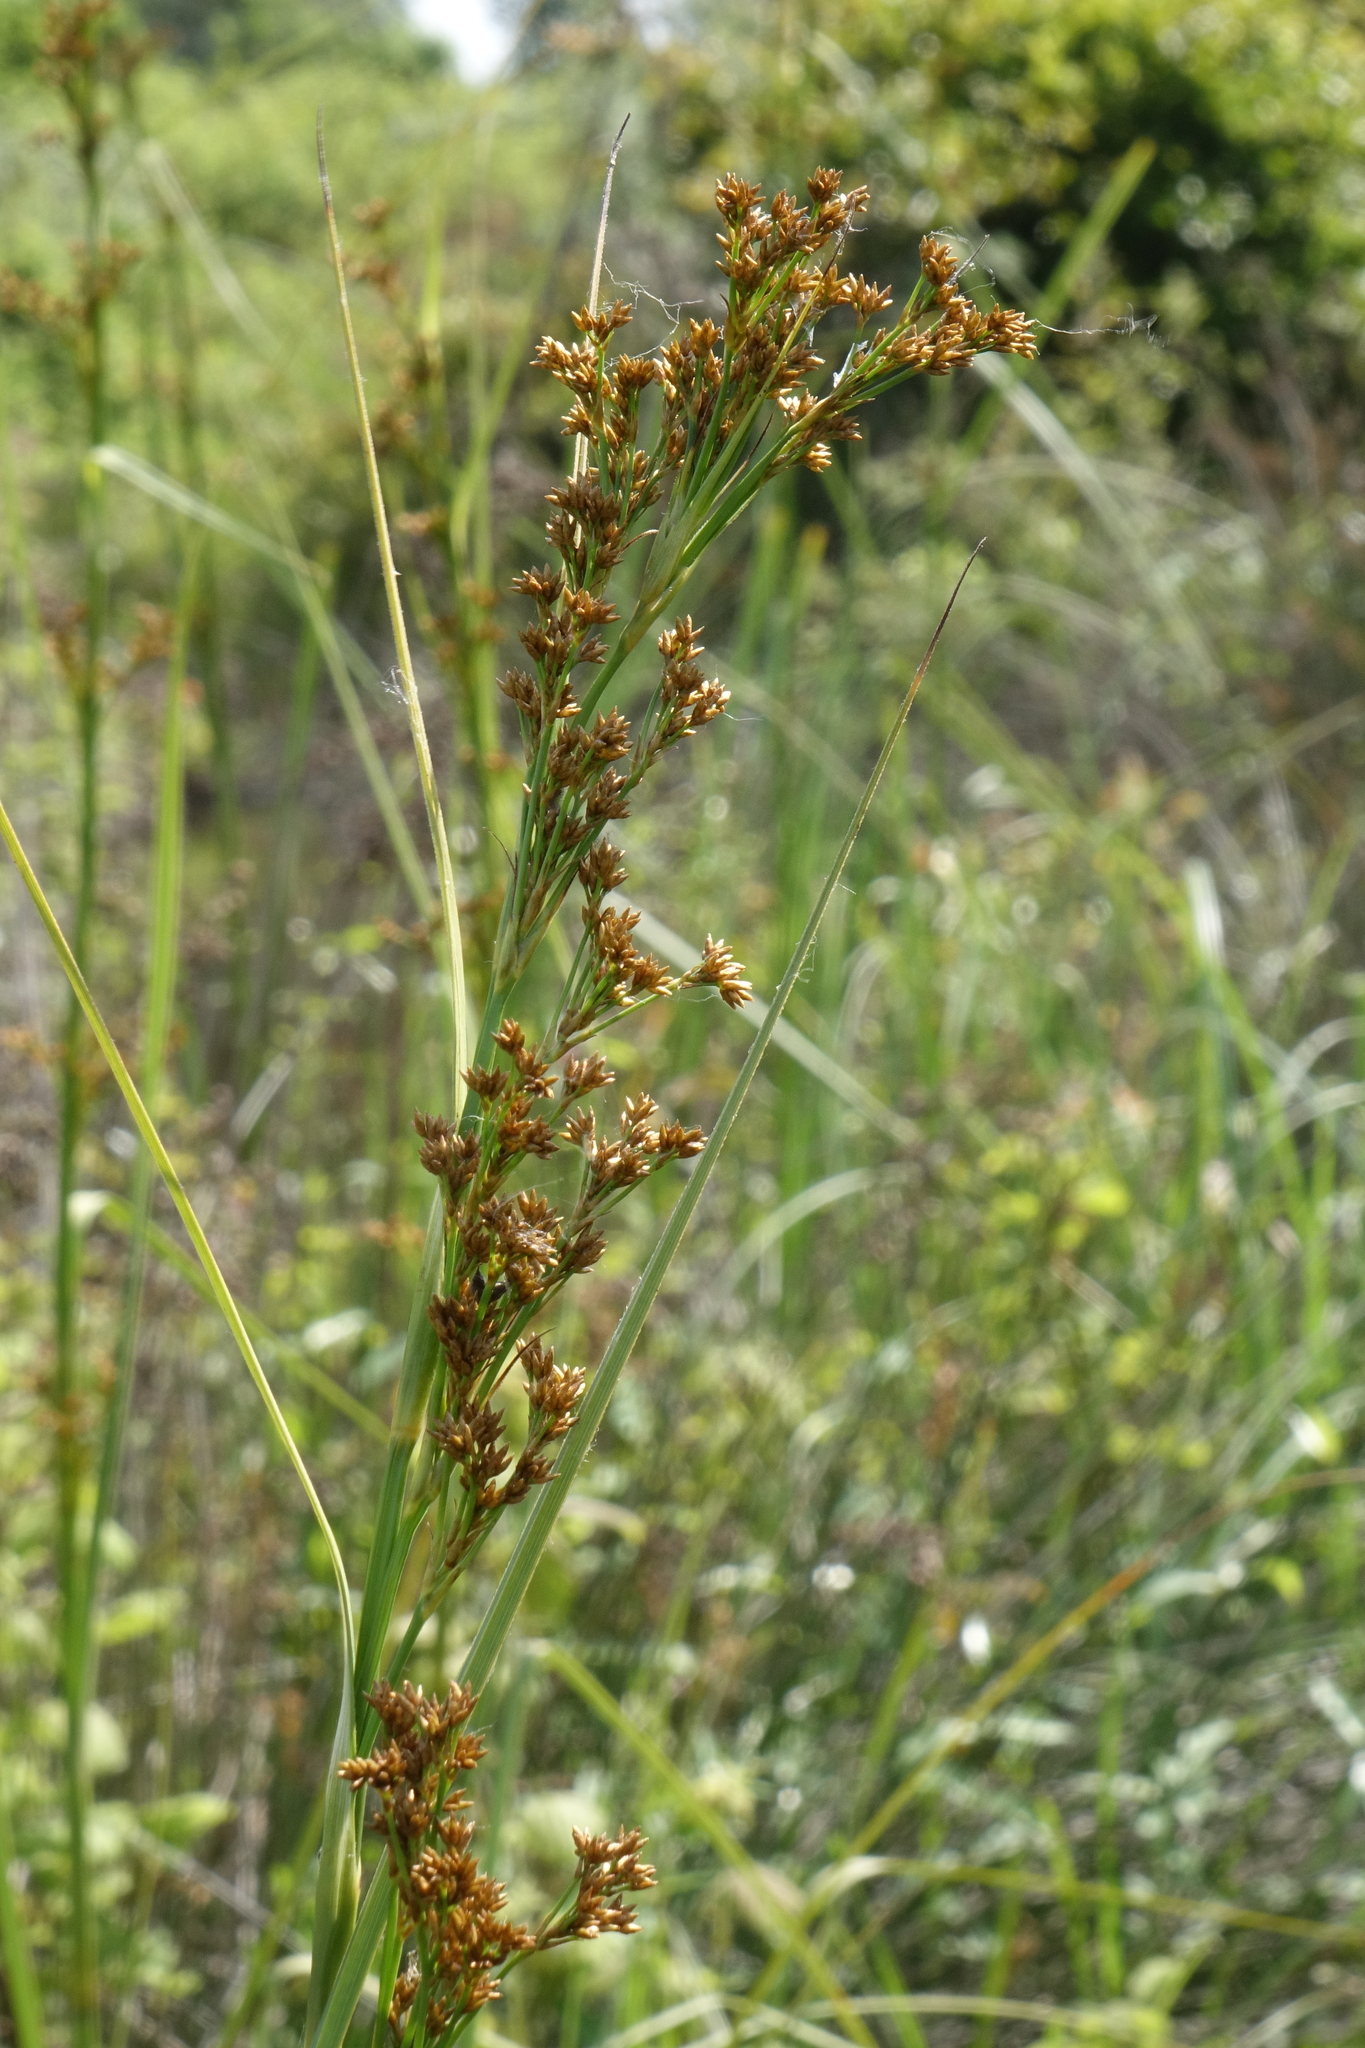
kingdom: Plantae
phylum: Tracheophyta
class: Liliopsida
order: Poales
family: Cyperaceae
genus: Cladium
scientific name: Cladium mariscus
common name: Great fen-sedge
